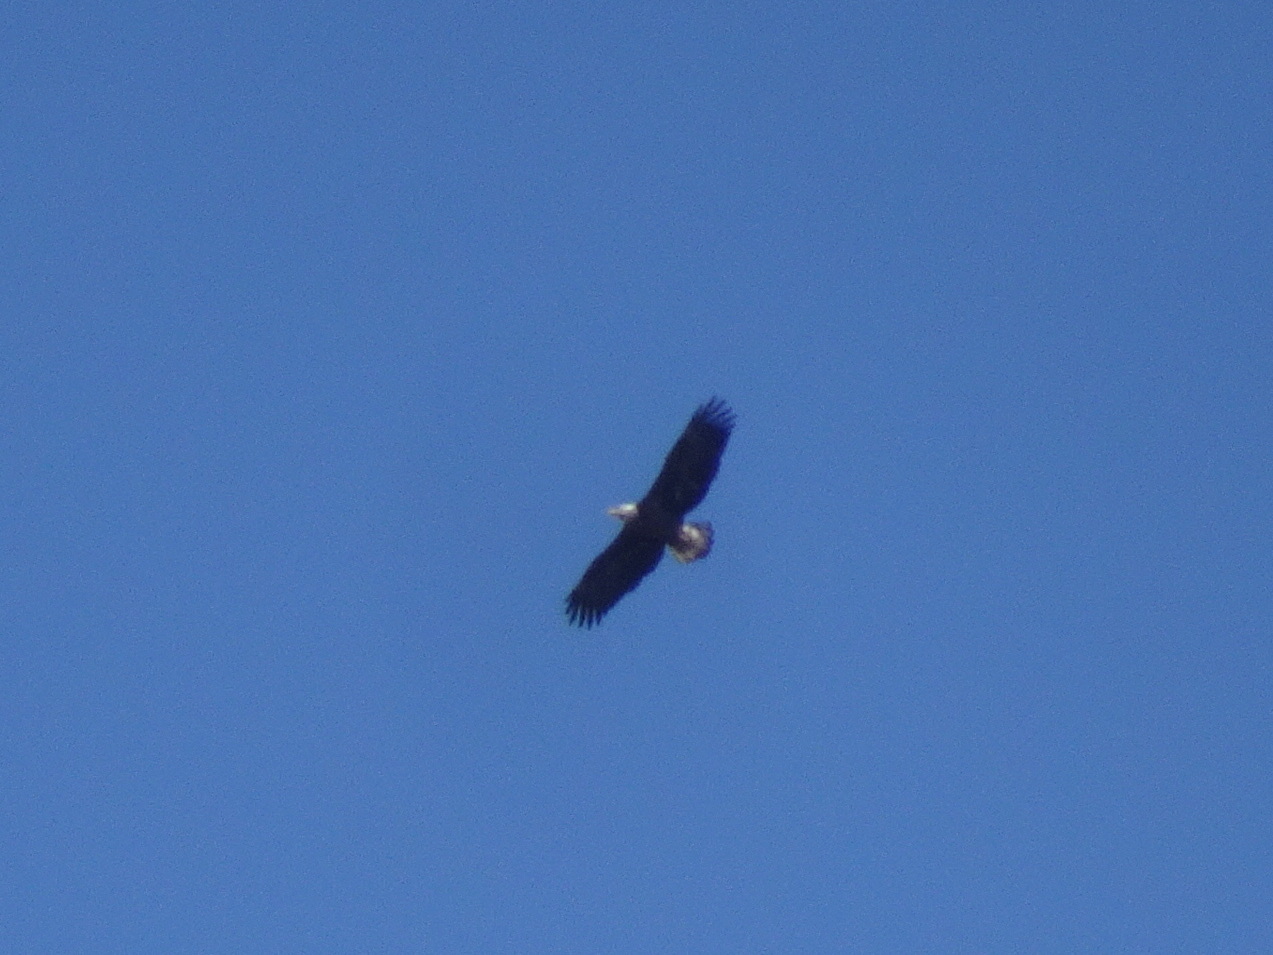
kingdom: Animalia
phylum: Chordata
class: Aves
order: Accipitriformes
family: Accipitridae
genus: Haliaeetus
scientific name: Haliaeetus leucocephalus
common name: Bald eagle
